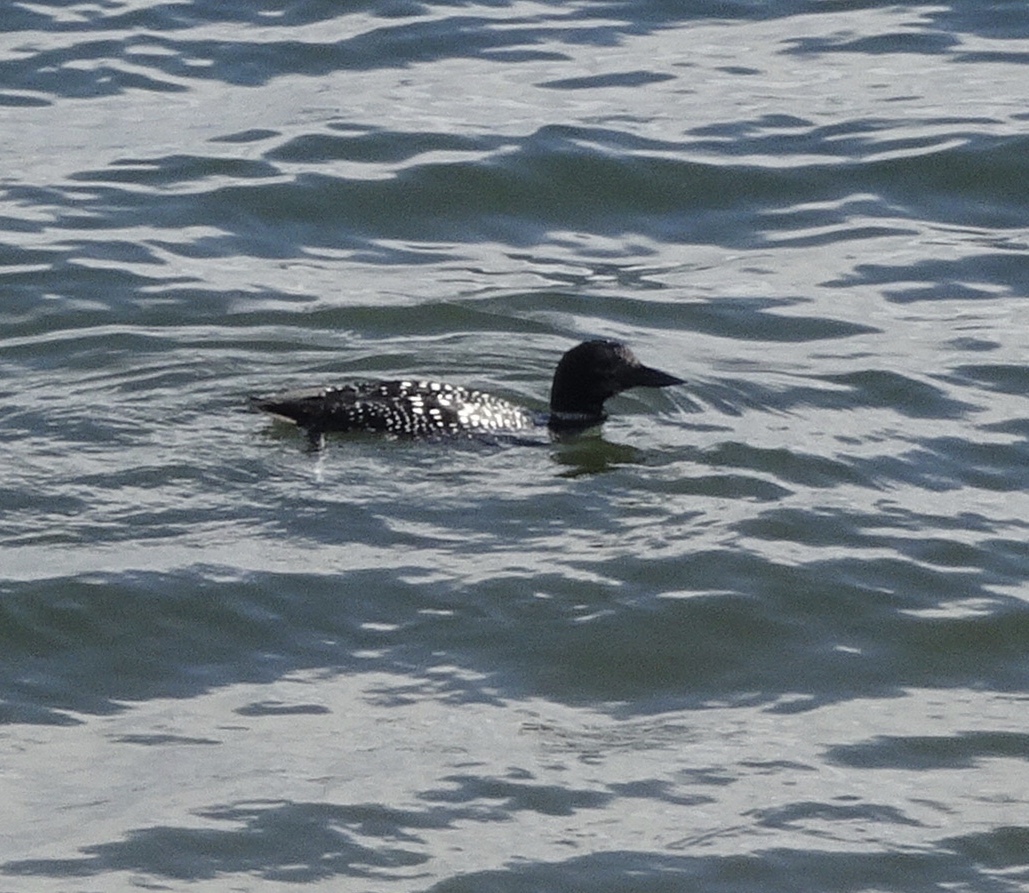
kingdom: Animalia
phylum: Chordata
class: Aves
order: Gaviiformes
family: Gaviidae
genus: Gavia
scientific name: Gavia immer
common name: Common loon
